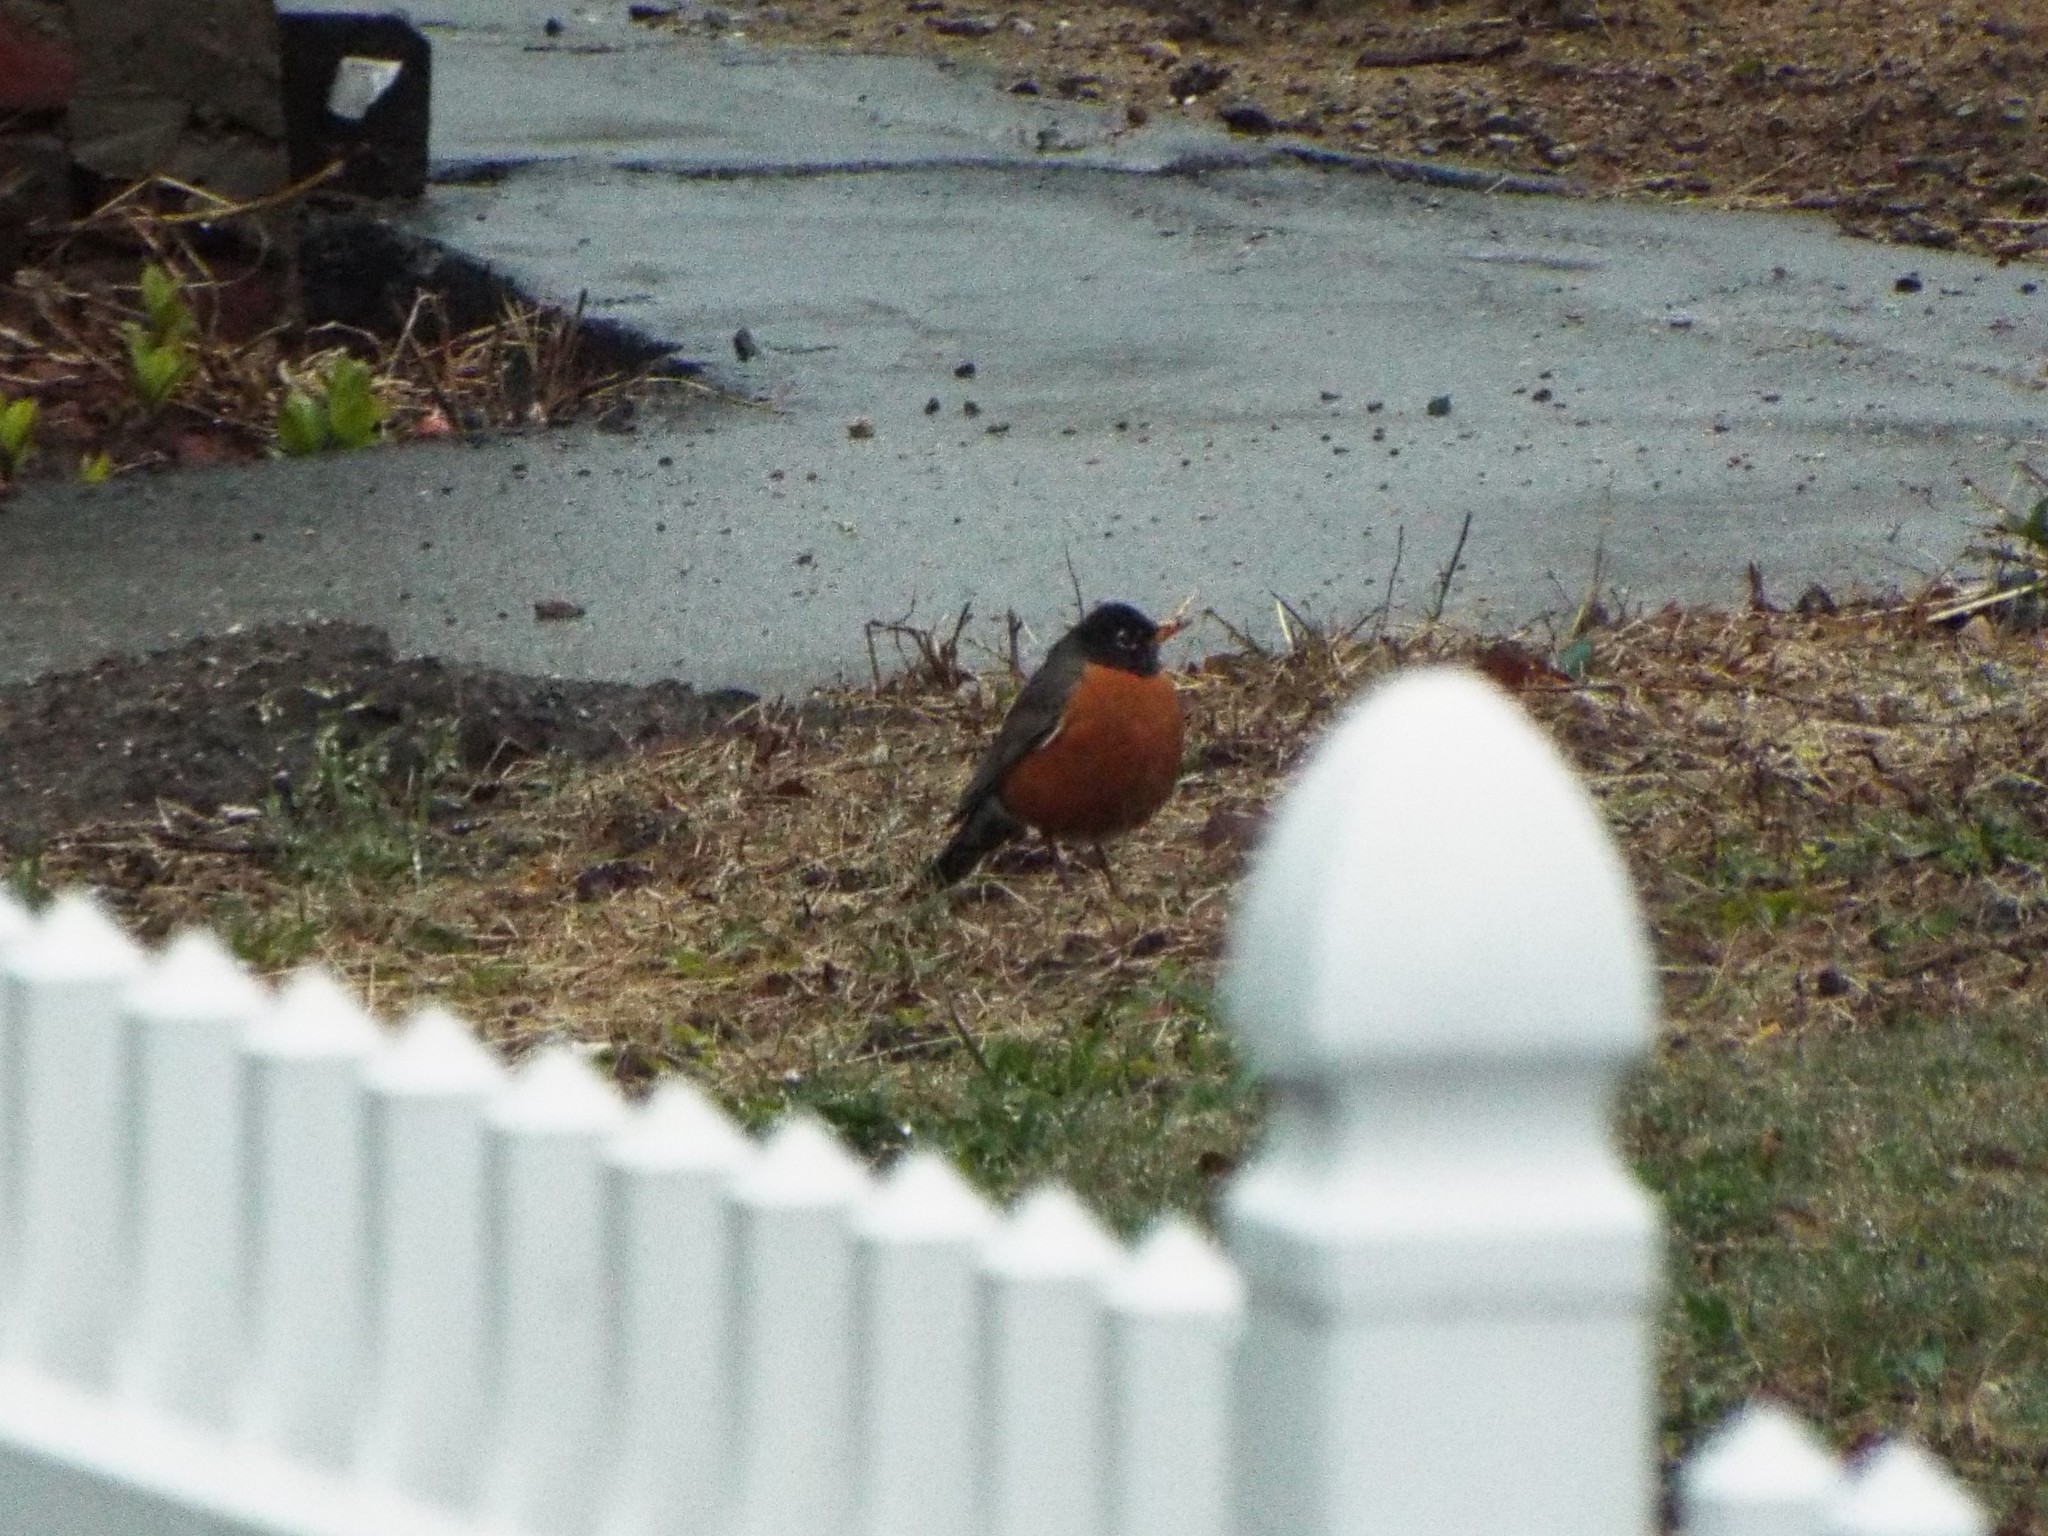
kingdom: Animalia
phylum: Chordata
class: Aves
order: Passeriformes
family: Turdidae
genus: Turdus
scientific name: Turdus migratorius
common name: American robin
